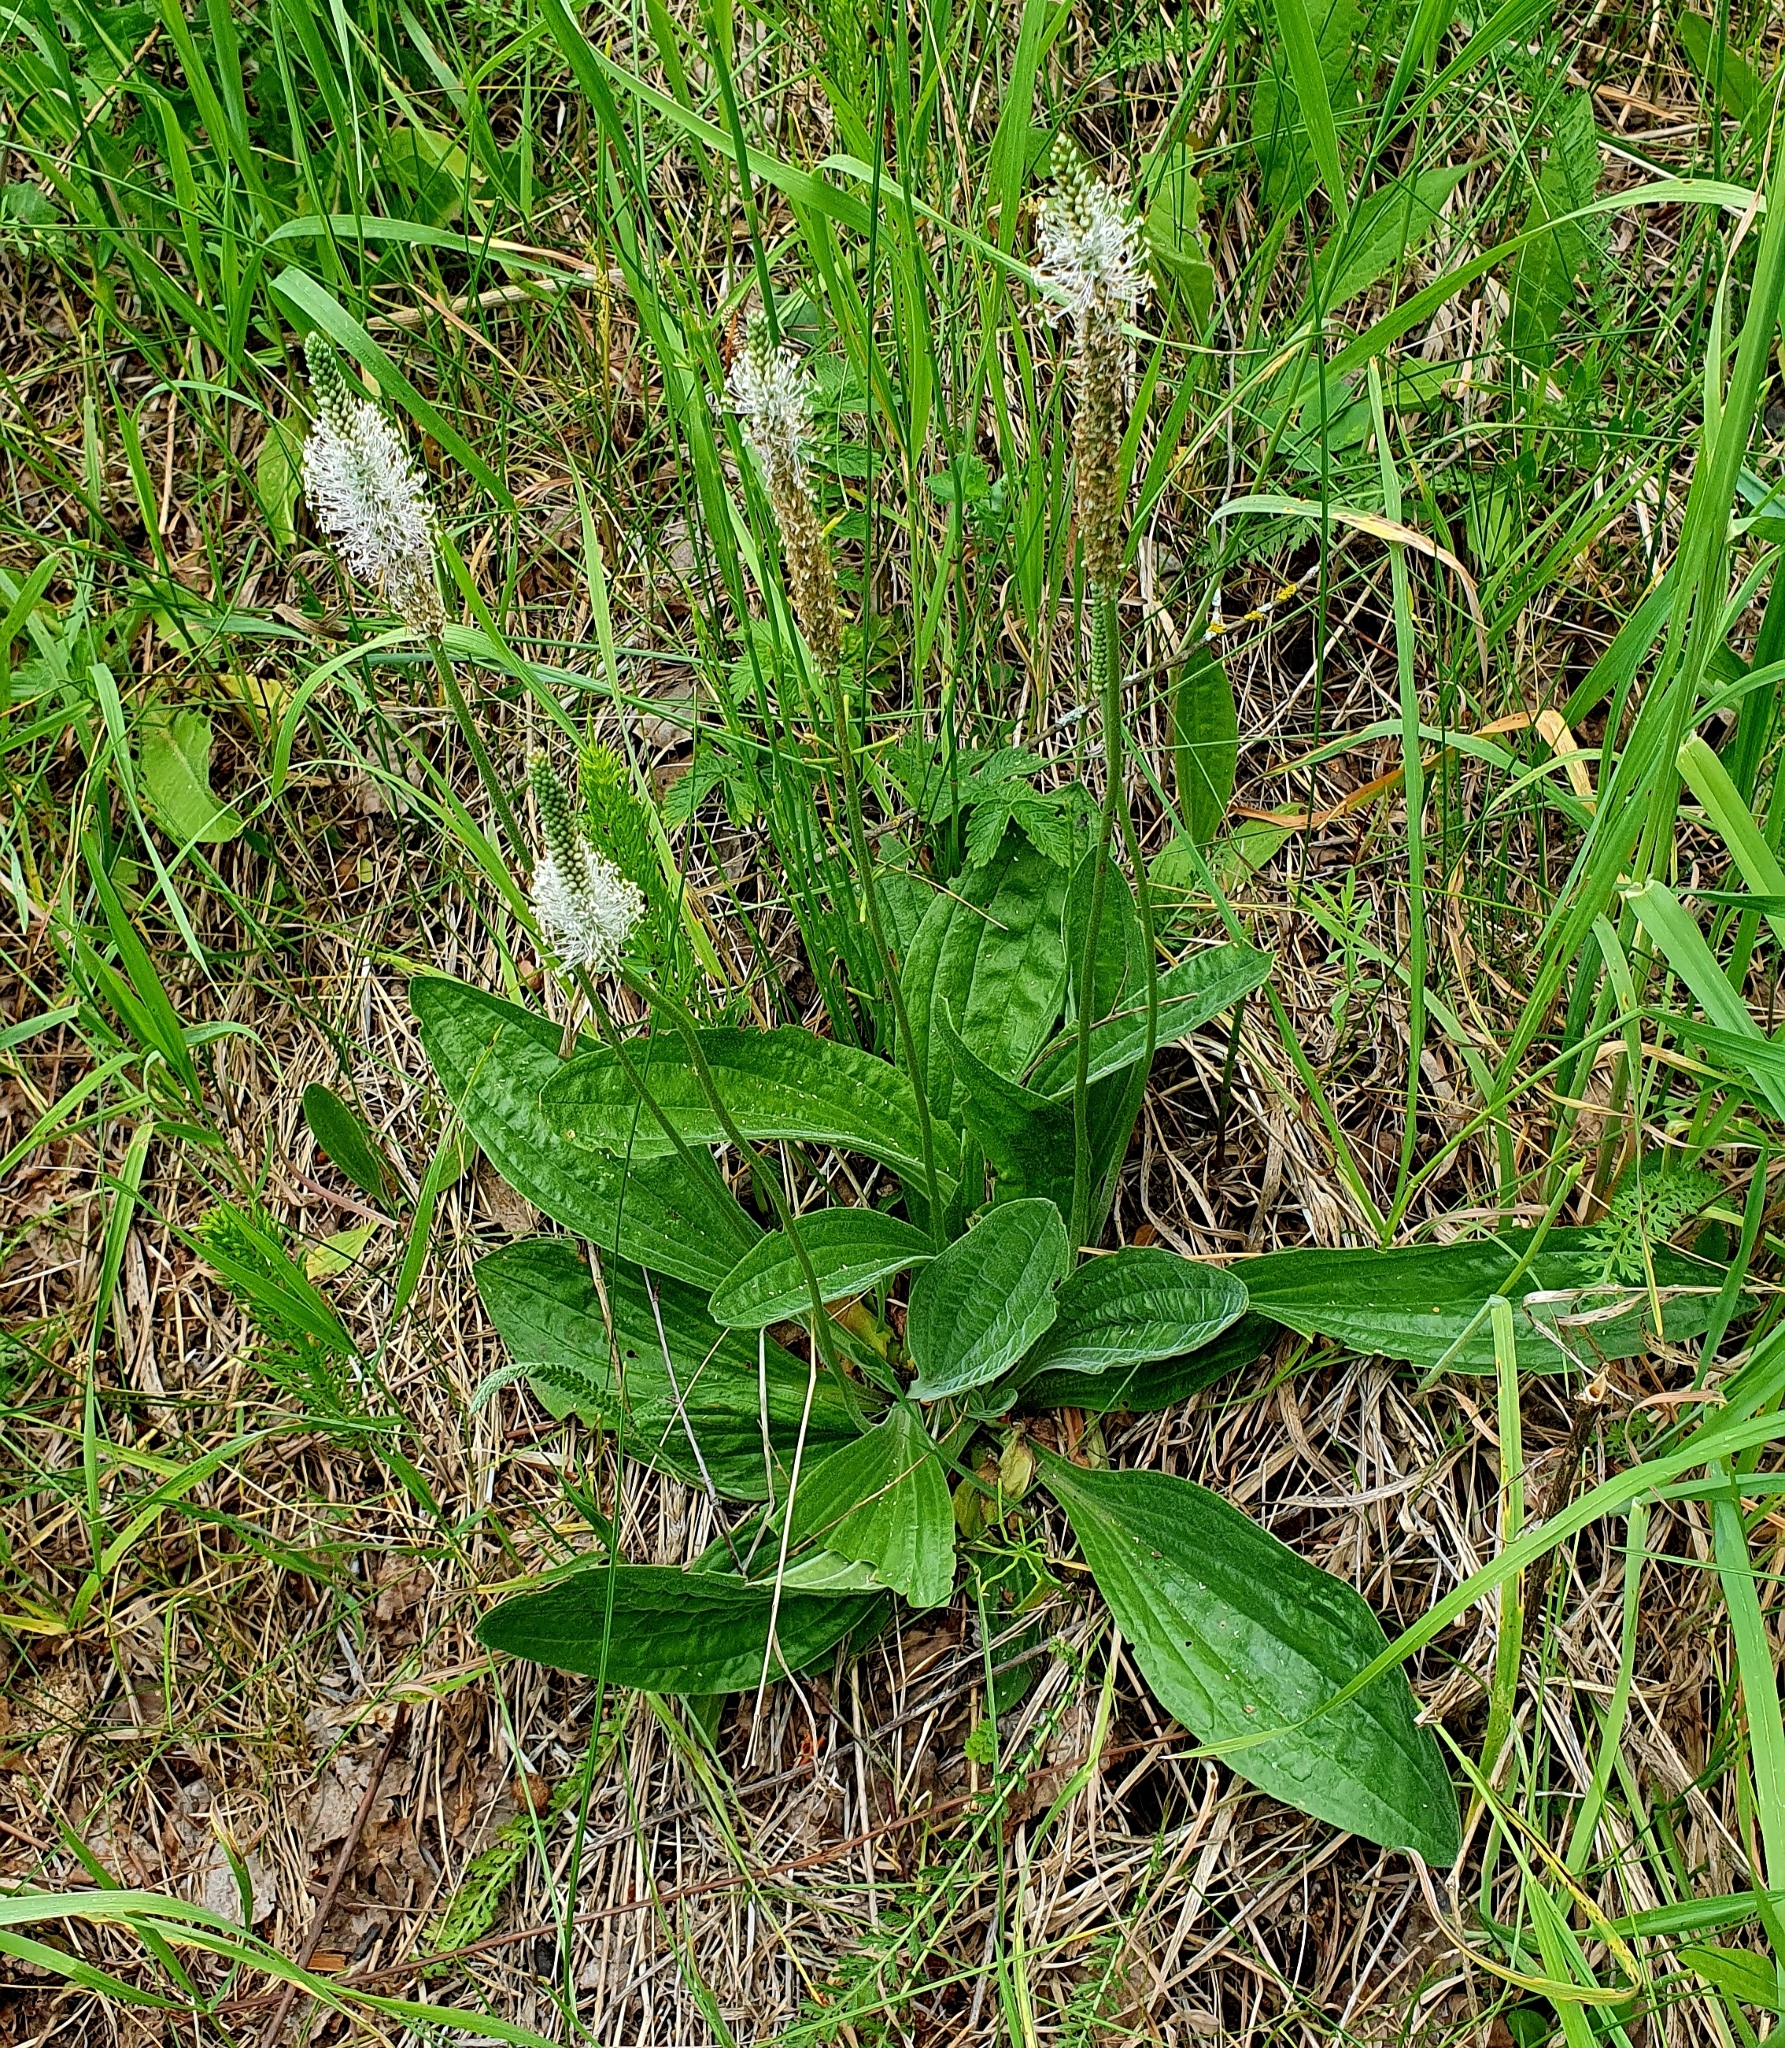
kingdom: Plantae
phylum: Tracheophyta
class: Magnoliopsida
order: Lamiales
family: Plantaginaceae
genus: Plantago
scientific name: Plantago urvillei
